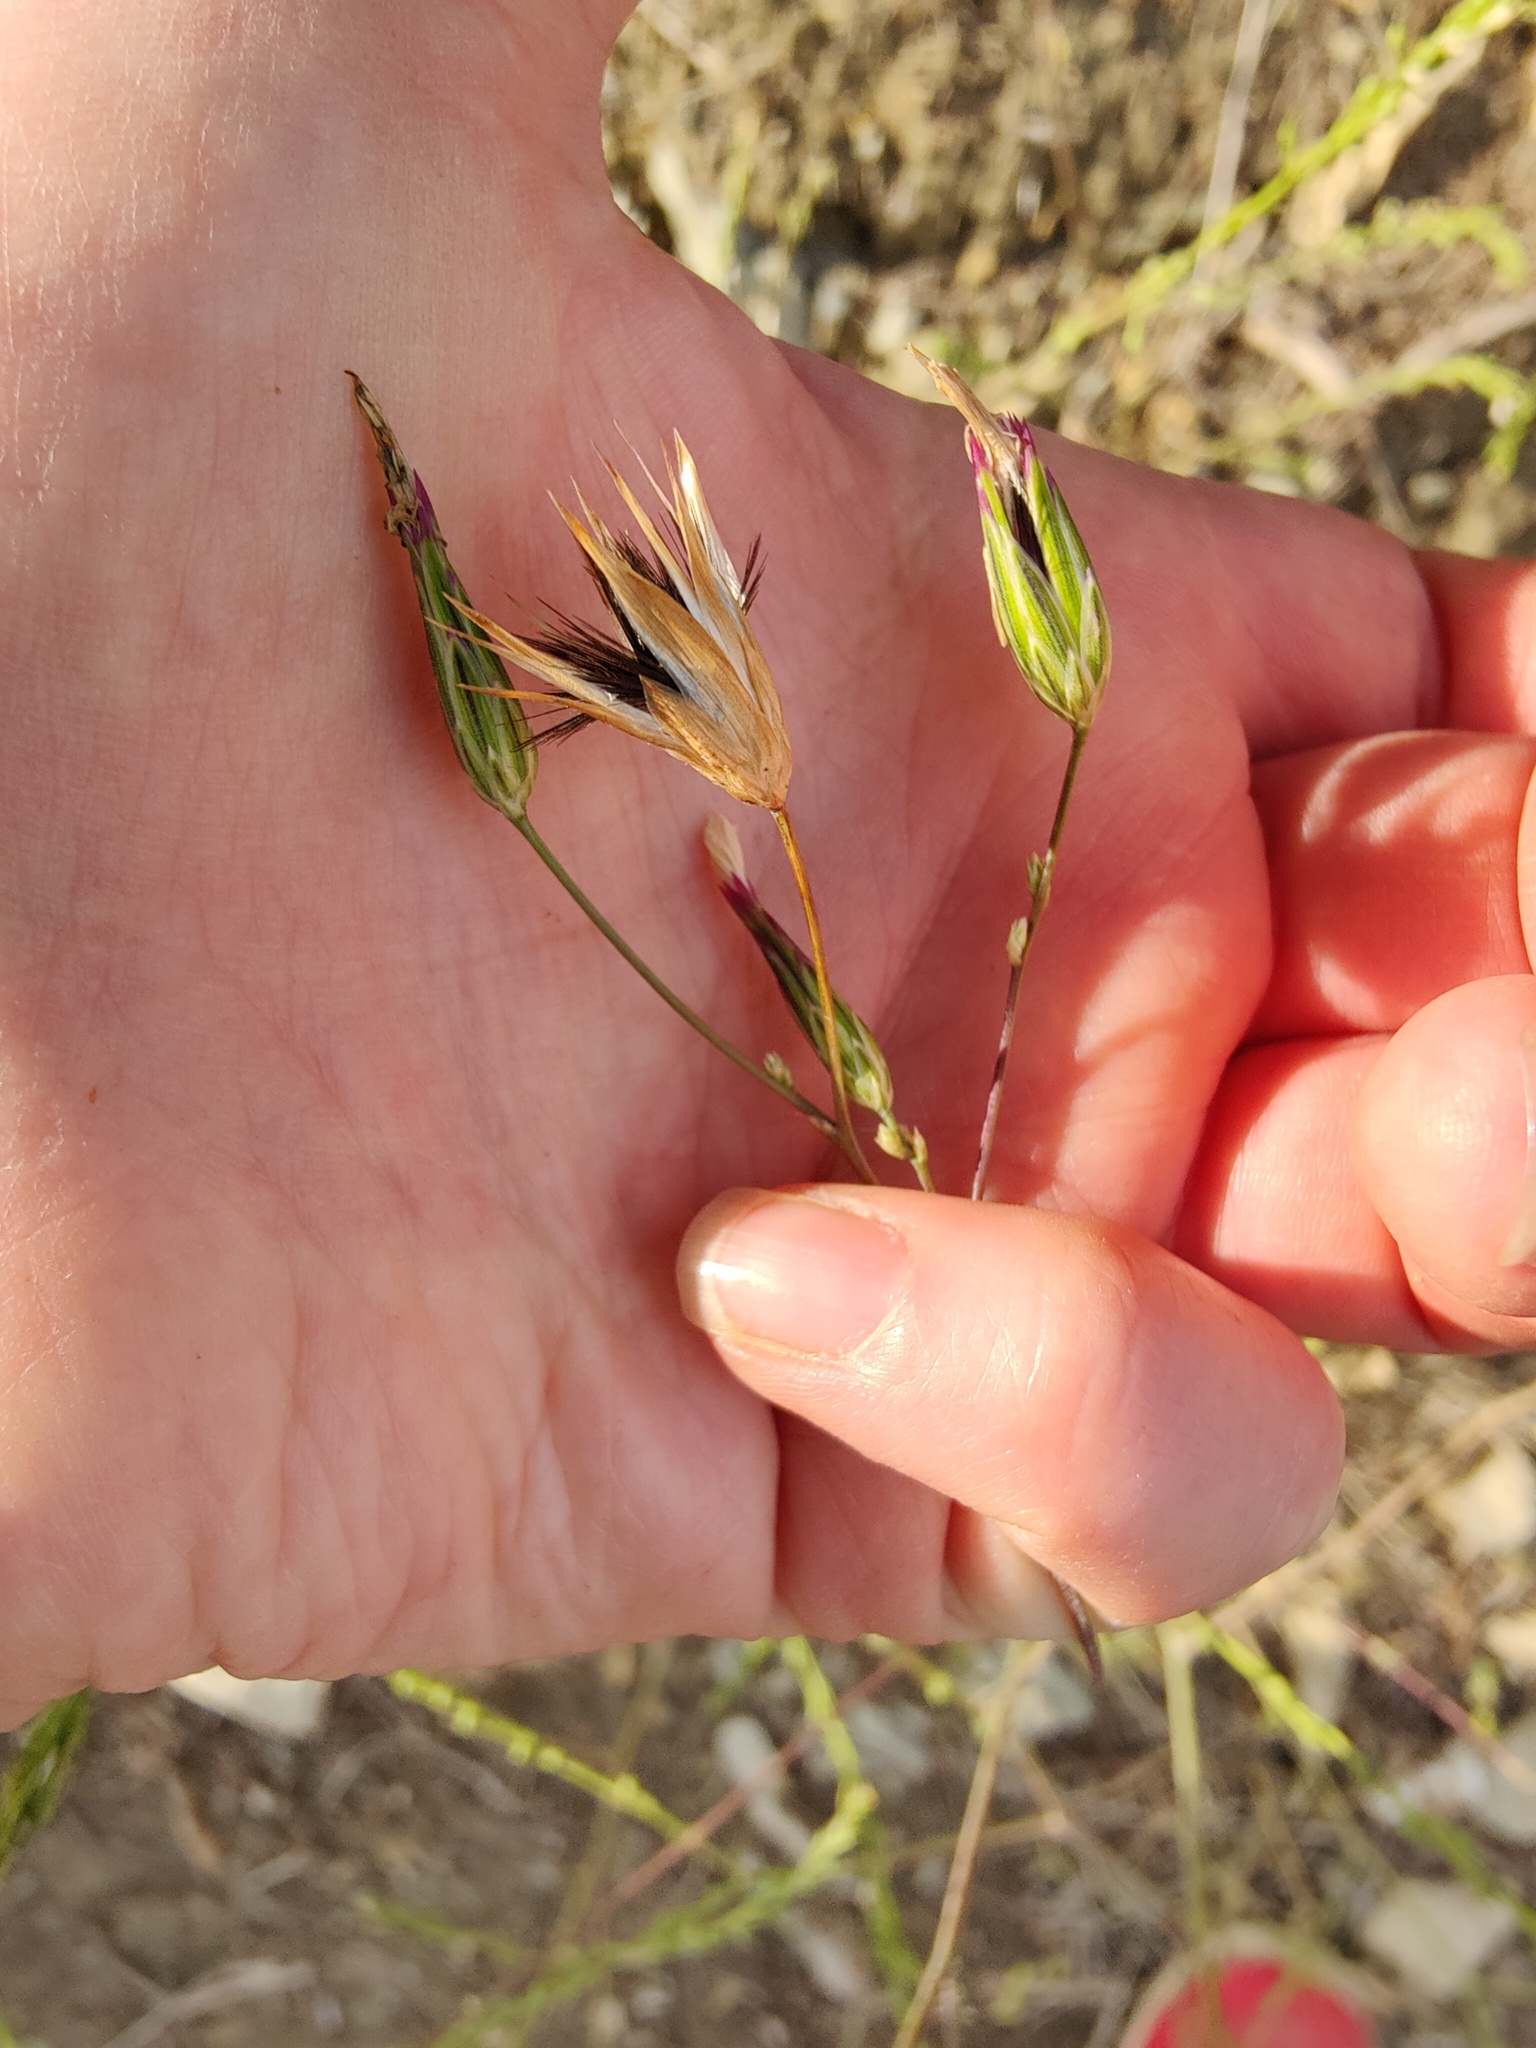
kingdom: Plantae
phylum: Tracheophyta
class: Magnoliopsida
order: Asterales
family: Asteraceae
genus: Crupina
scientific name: Crupina vulgaris
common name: Common crupina
